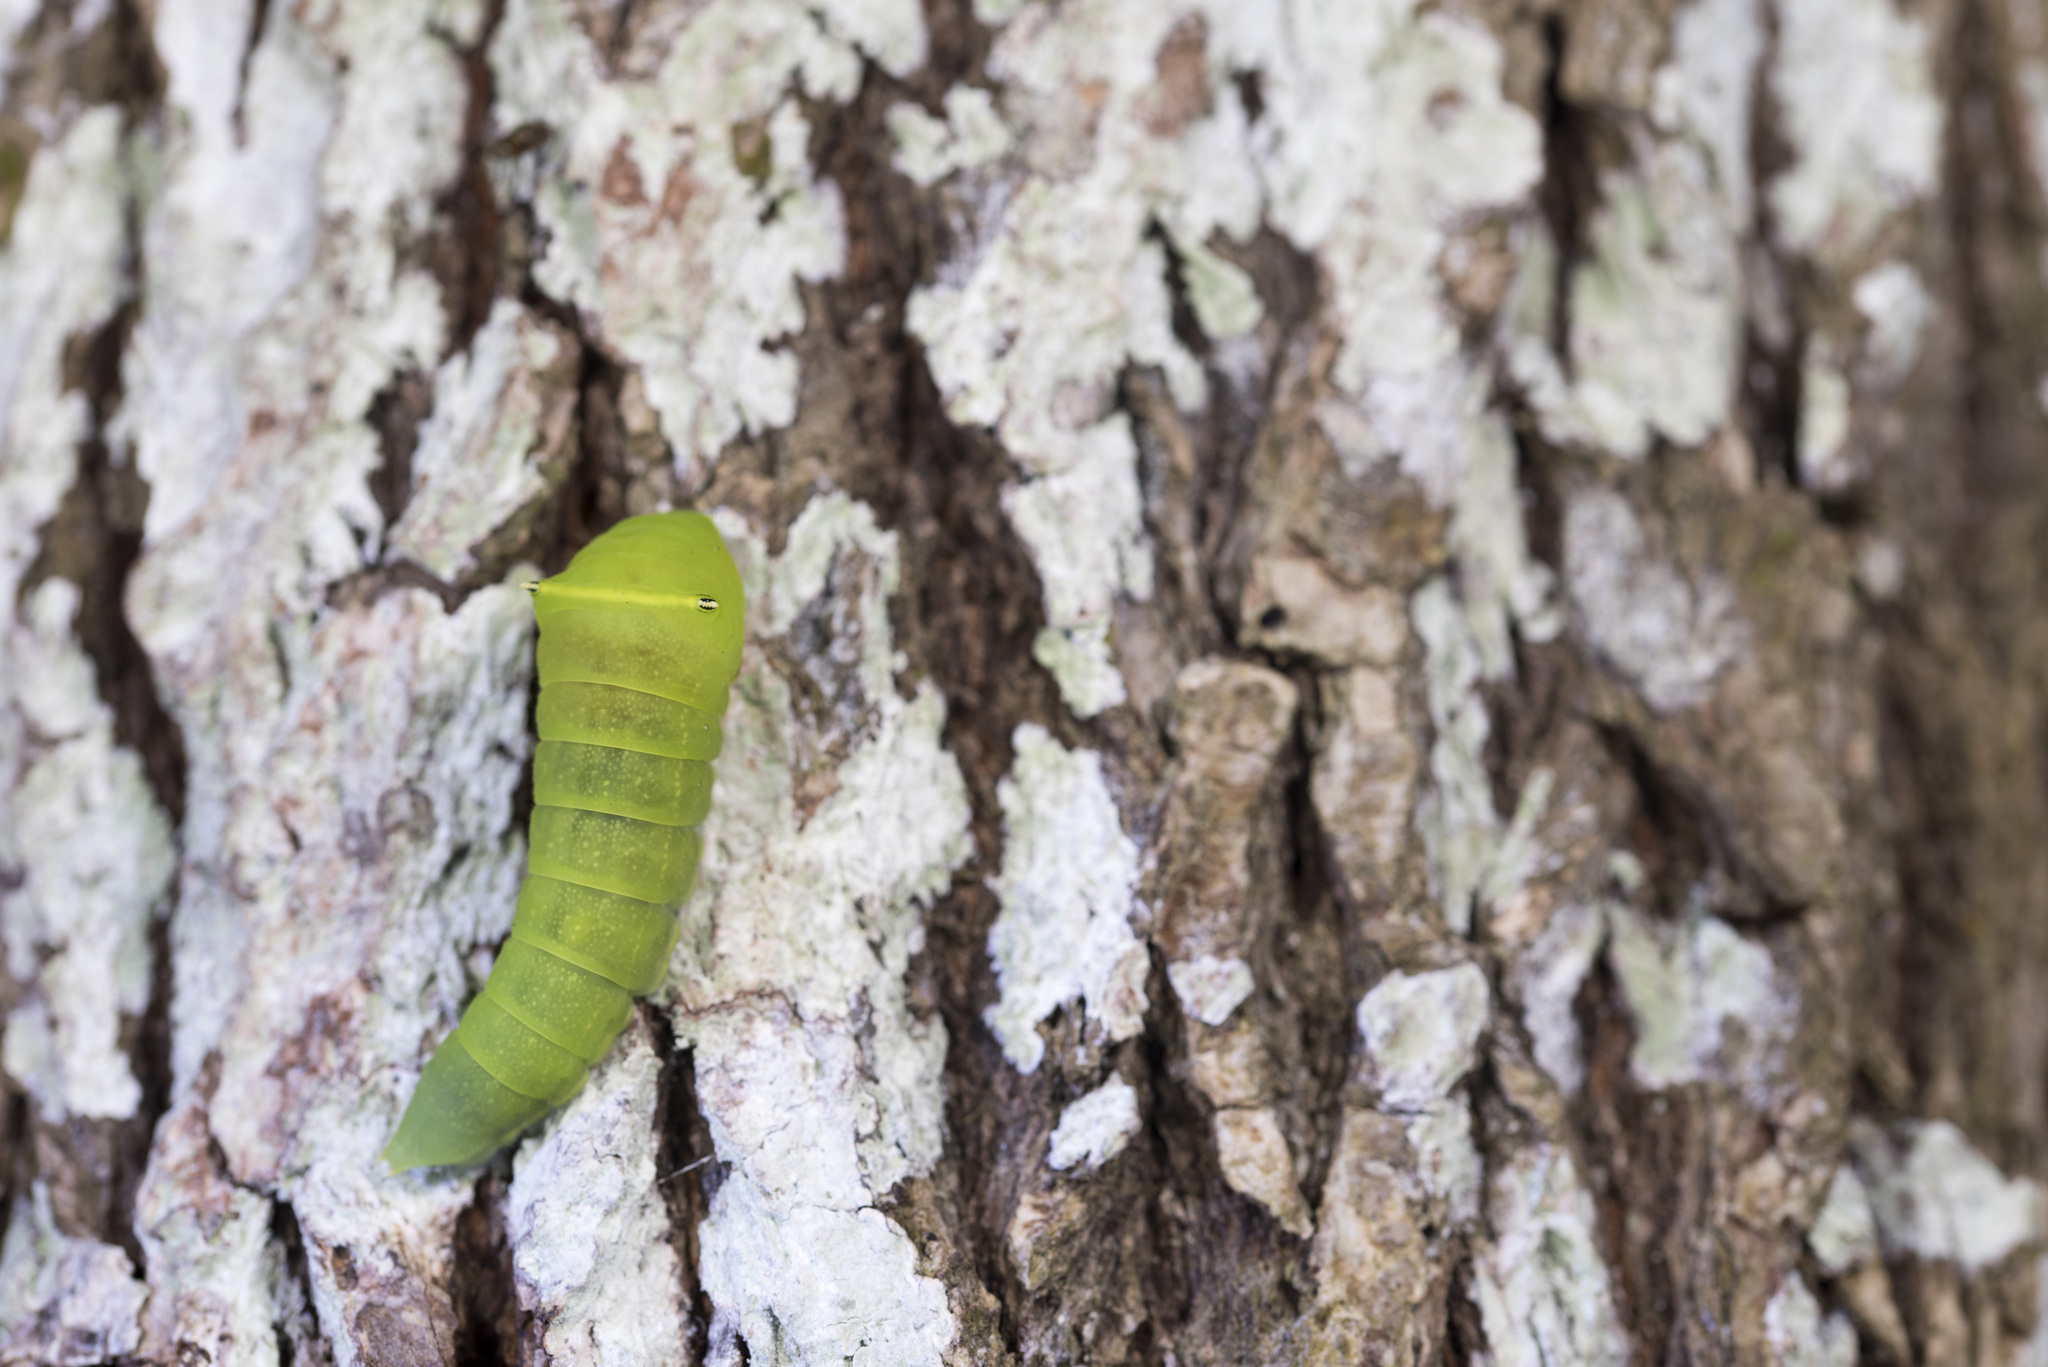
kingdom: Fungi
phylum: Ascomycota
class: Sordariomycetes
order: Microascales
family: Microascaceae
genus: Graphium
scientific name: Graphium sarpedon
